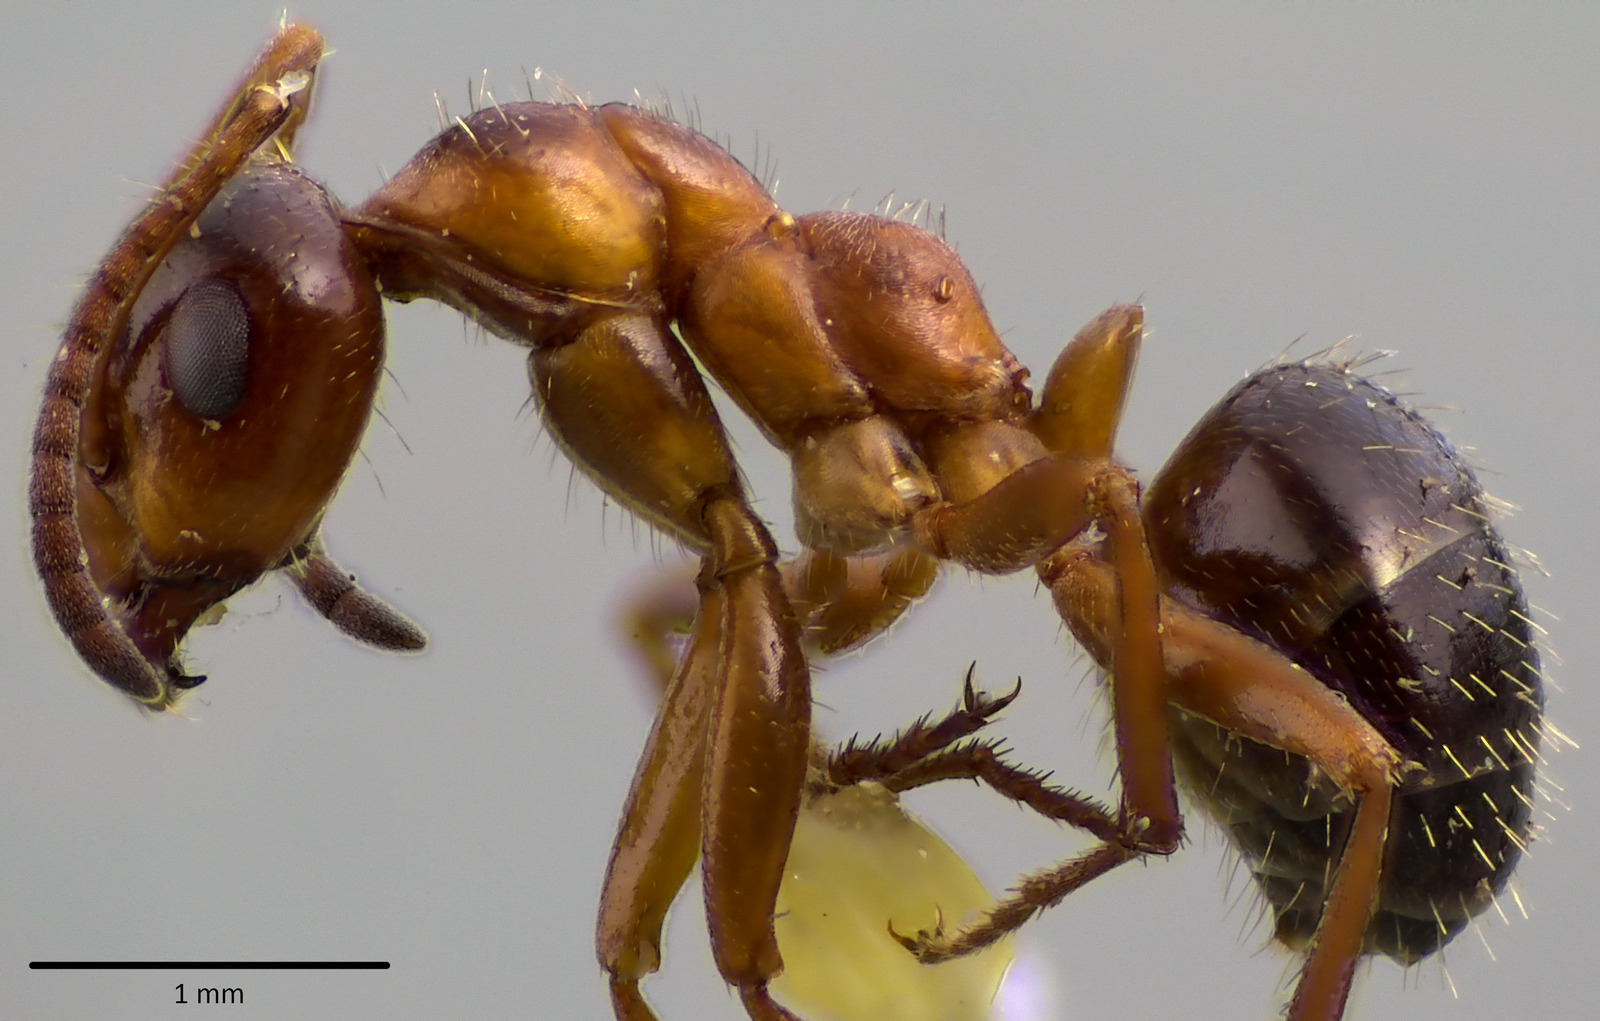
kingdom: Animalia
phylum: Arthropoda
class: Insecta
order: Hymenoptera
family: Formicidae
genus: Formica
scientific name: Formica vinculans
